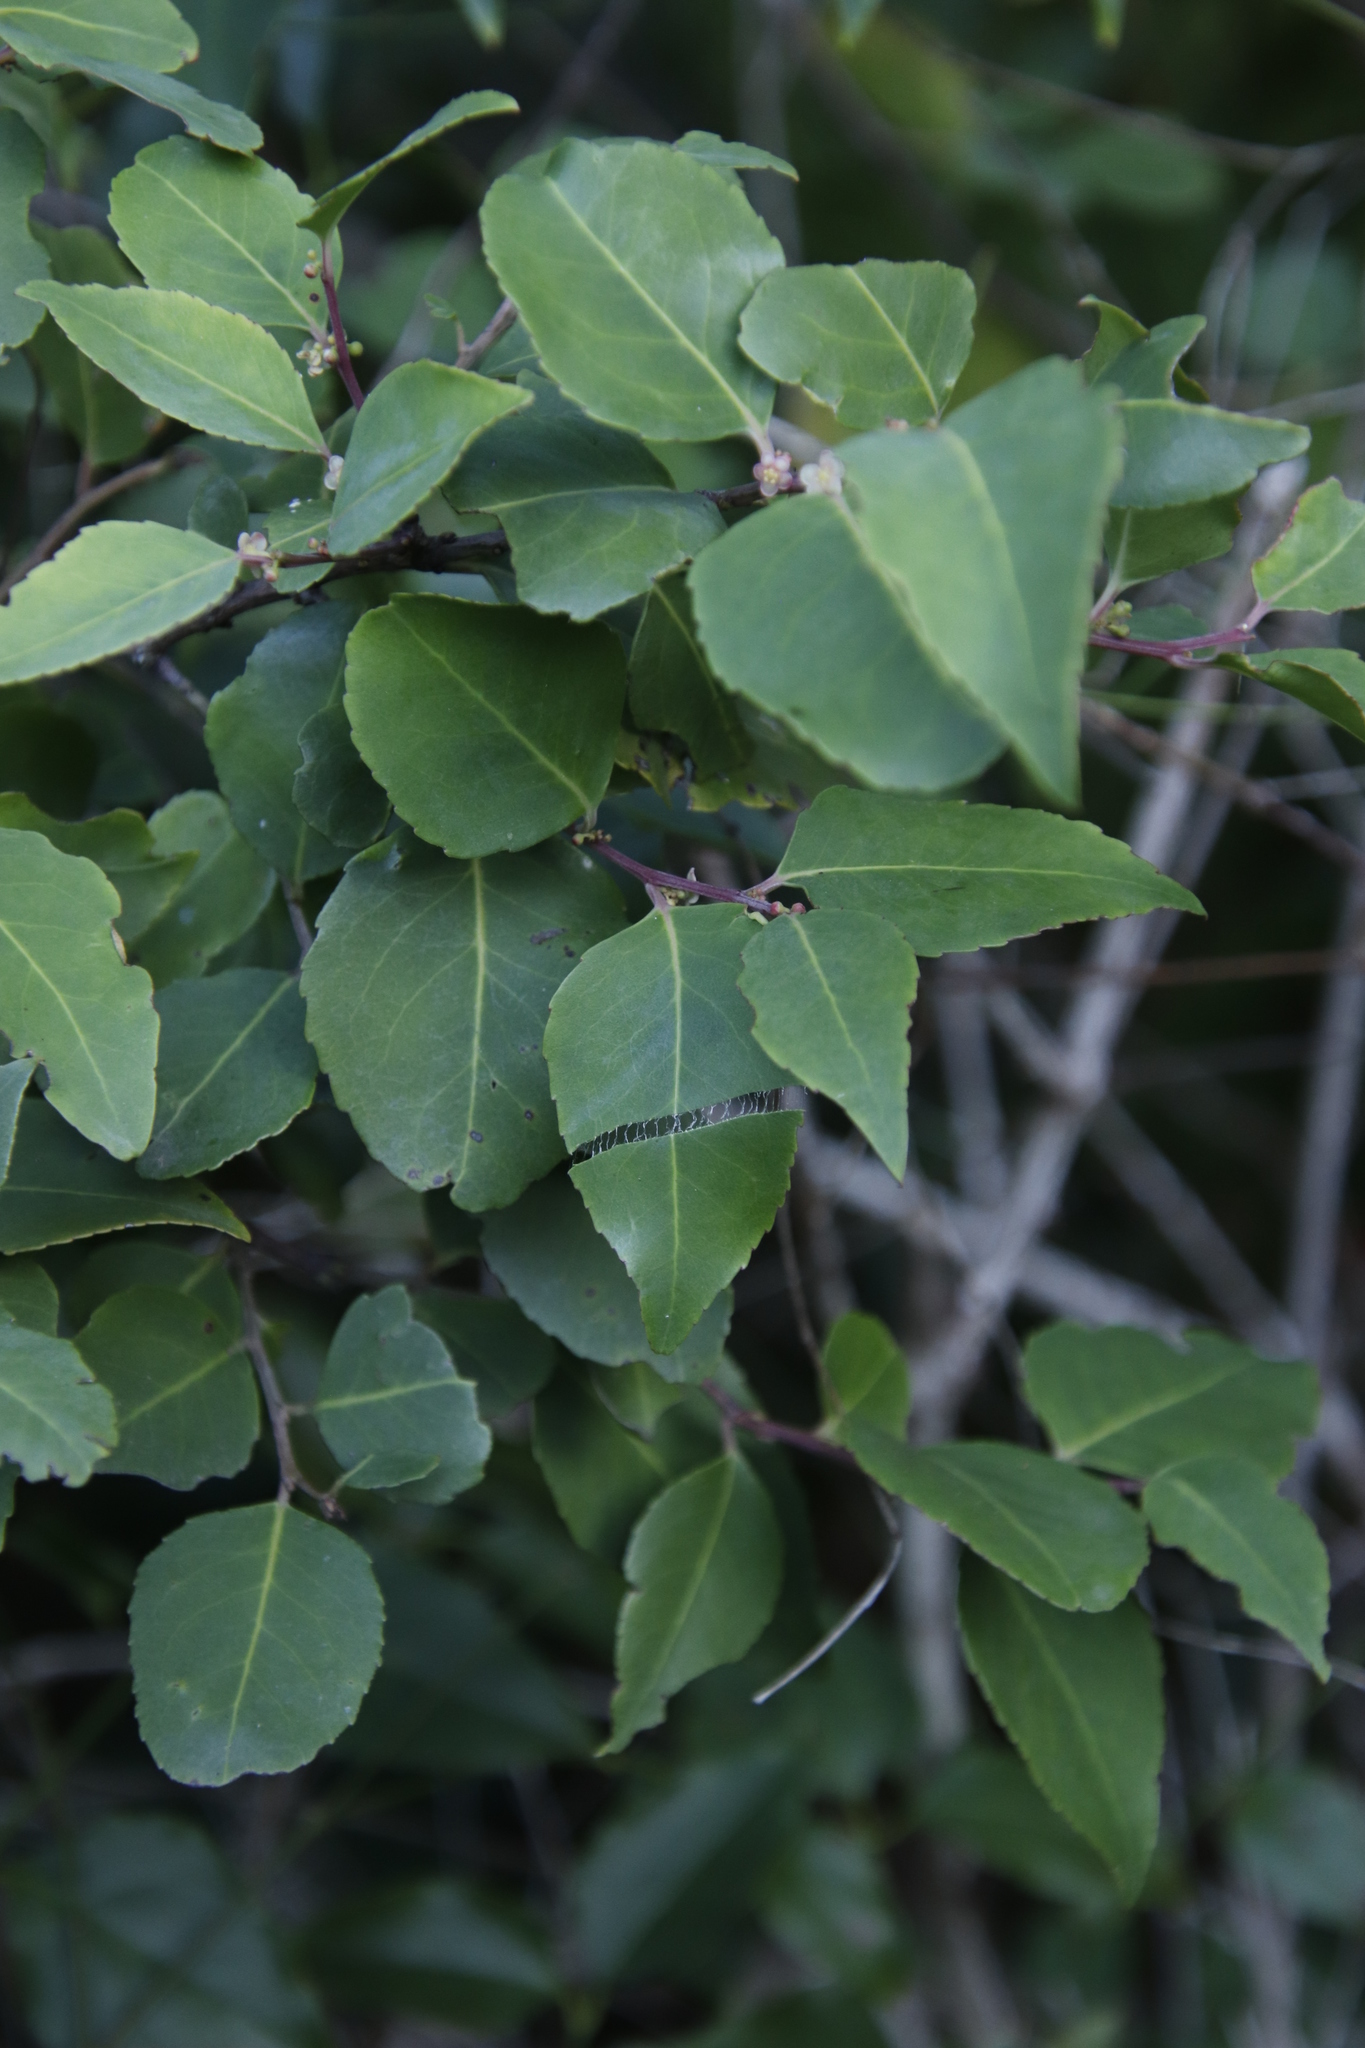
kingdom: Plantae
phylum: Tracheophyta
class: Magnoliopsida
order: Celastrales
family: Celastraceae
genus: Gymnosporia
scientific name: Gymnosporia acuminata
